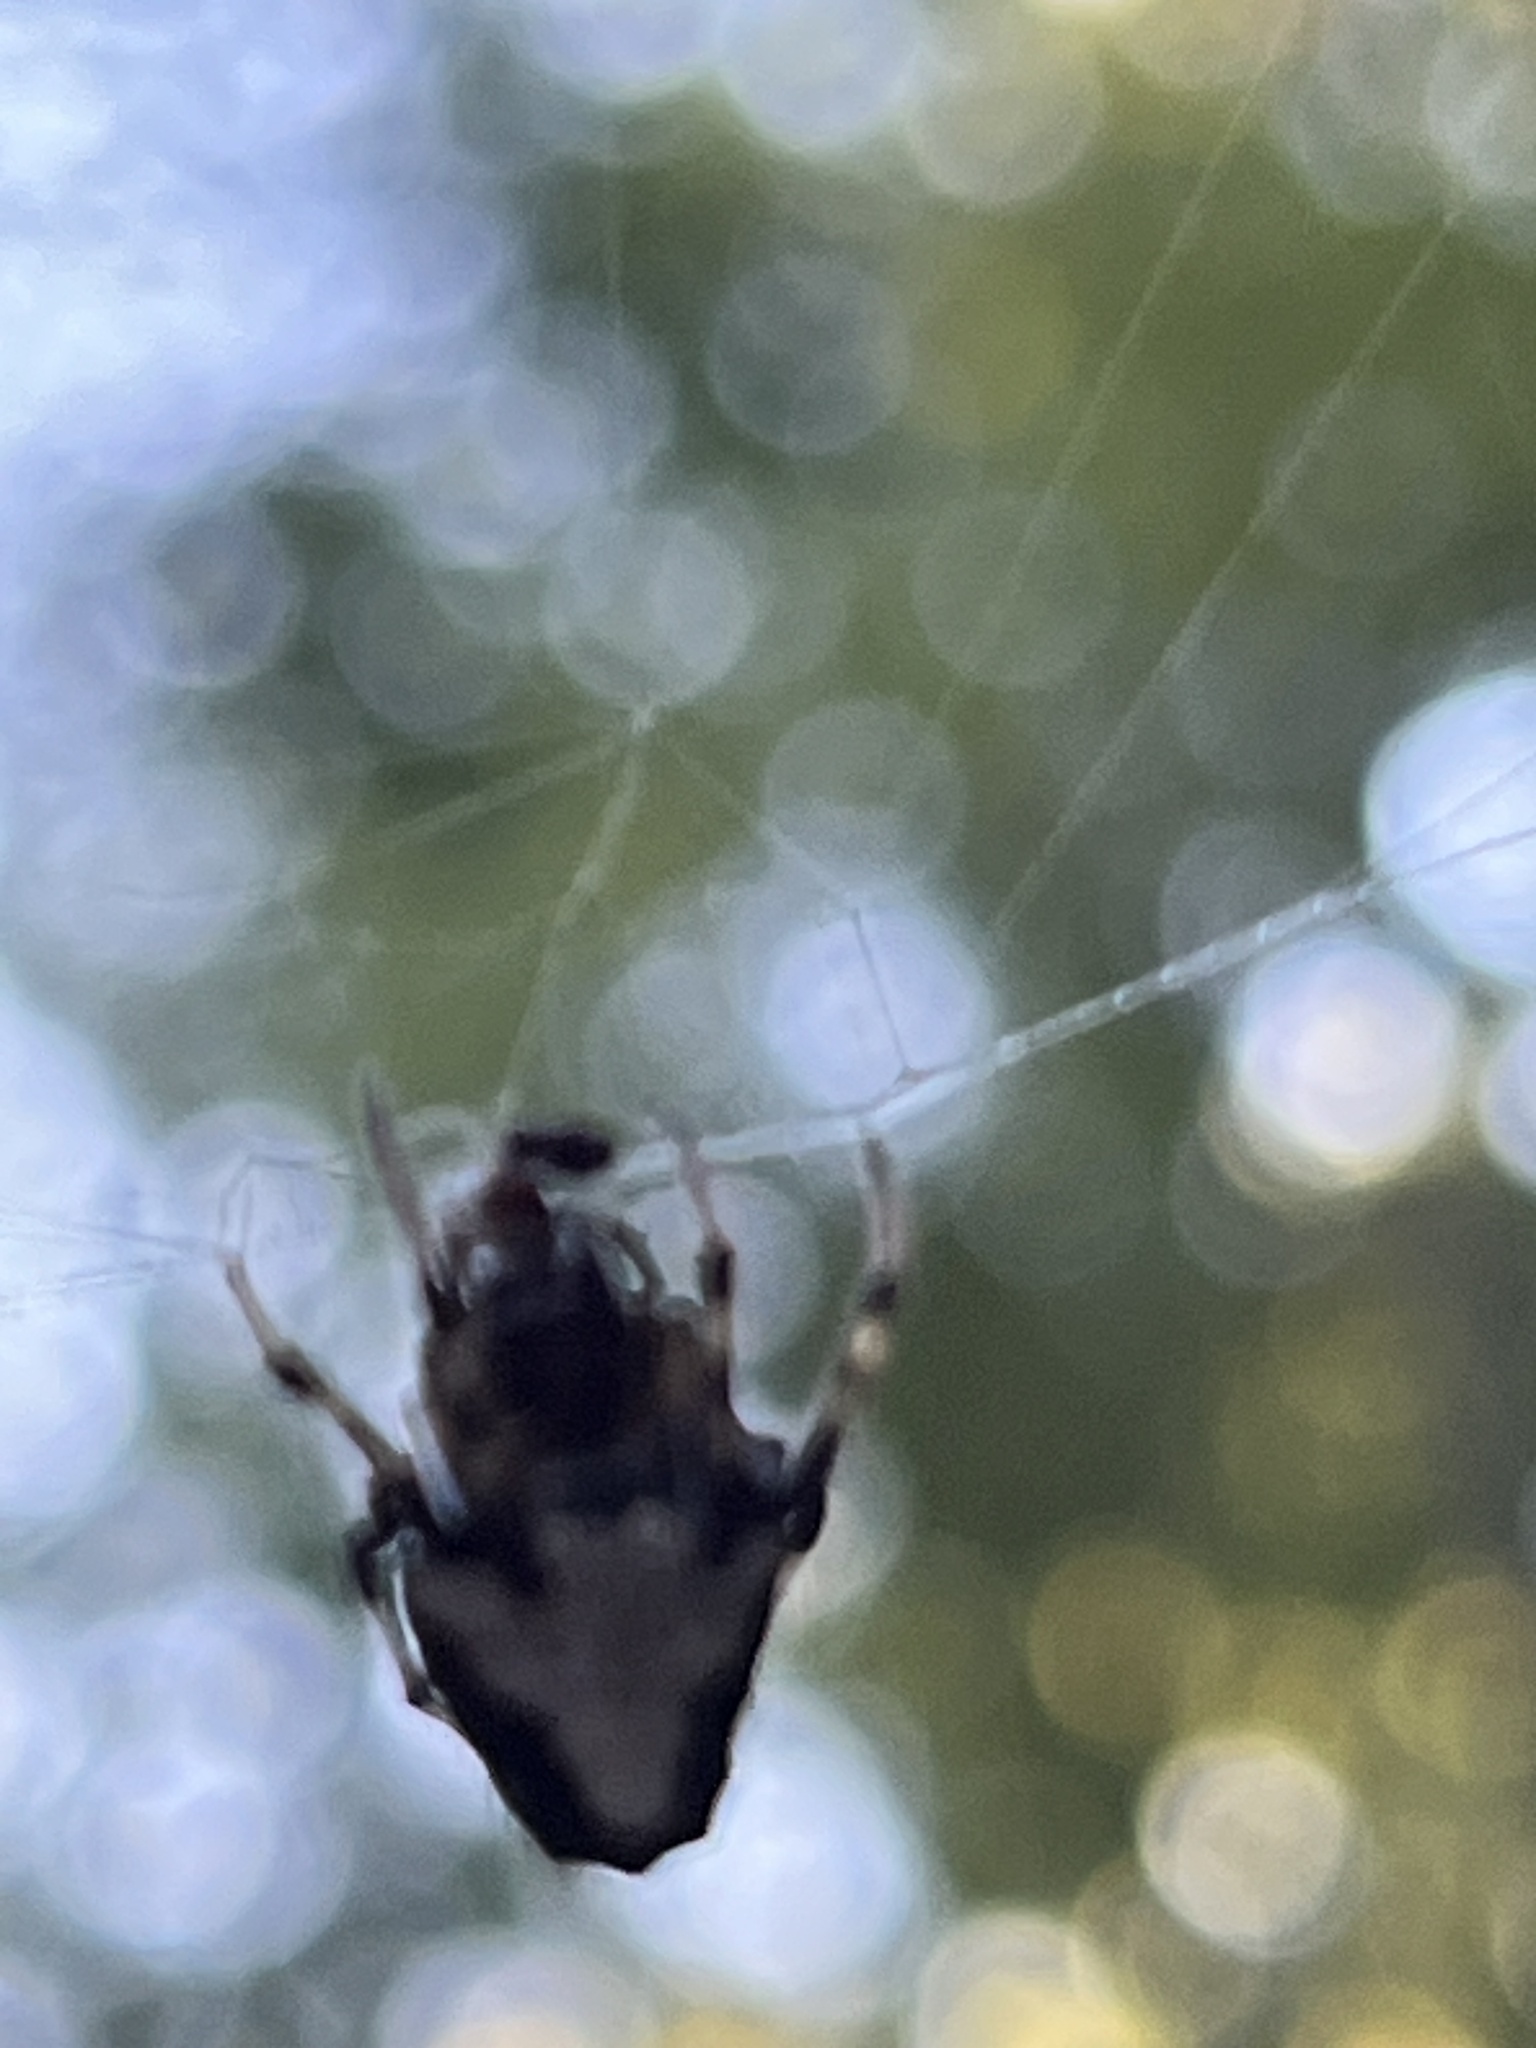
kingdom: Animalia
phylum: Arthropoda
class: Arachnida
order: Araneae
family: Araneidae
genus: Verrucosa
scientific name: Verrucosa arenata
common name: Orb weavers
